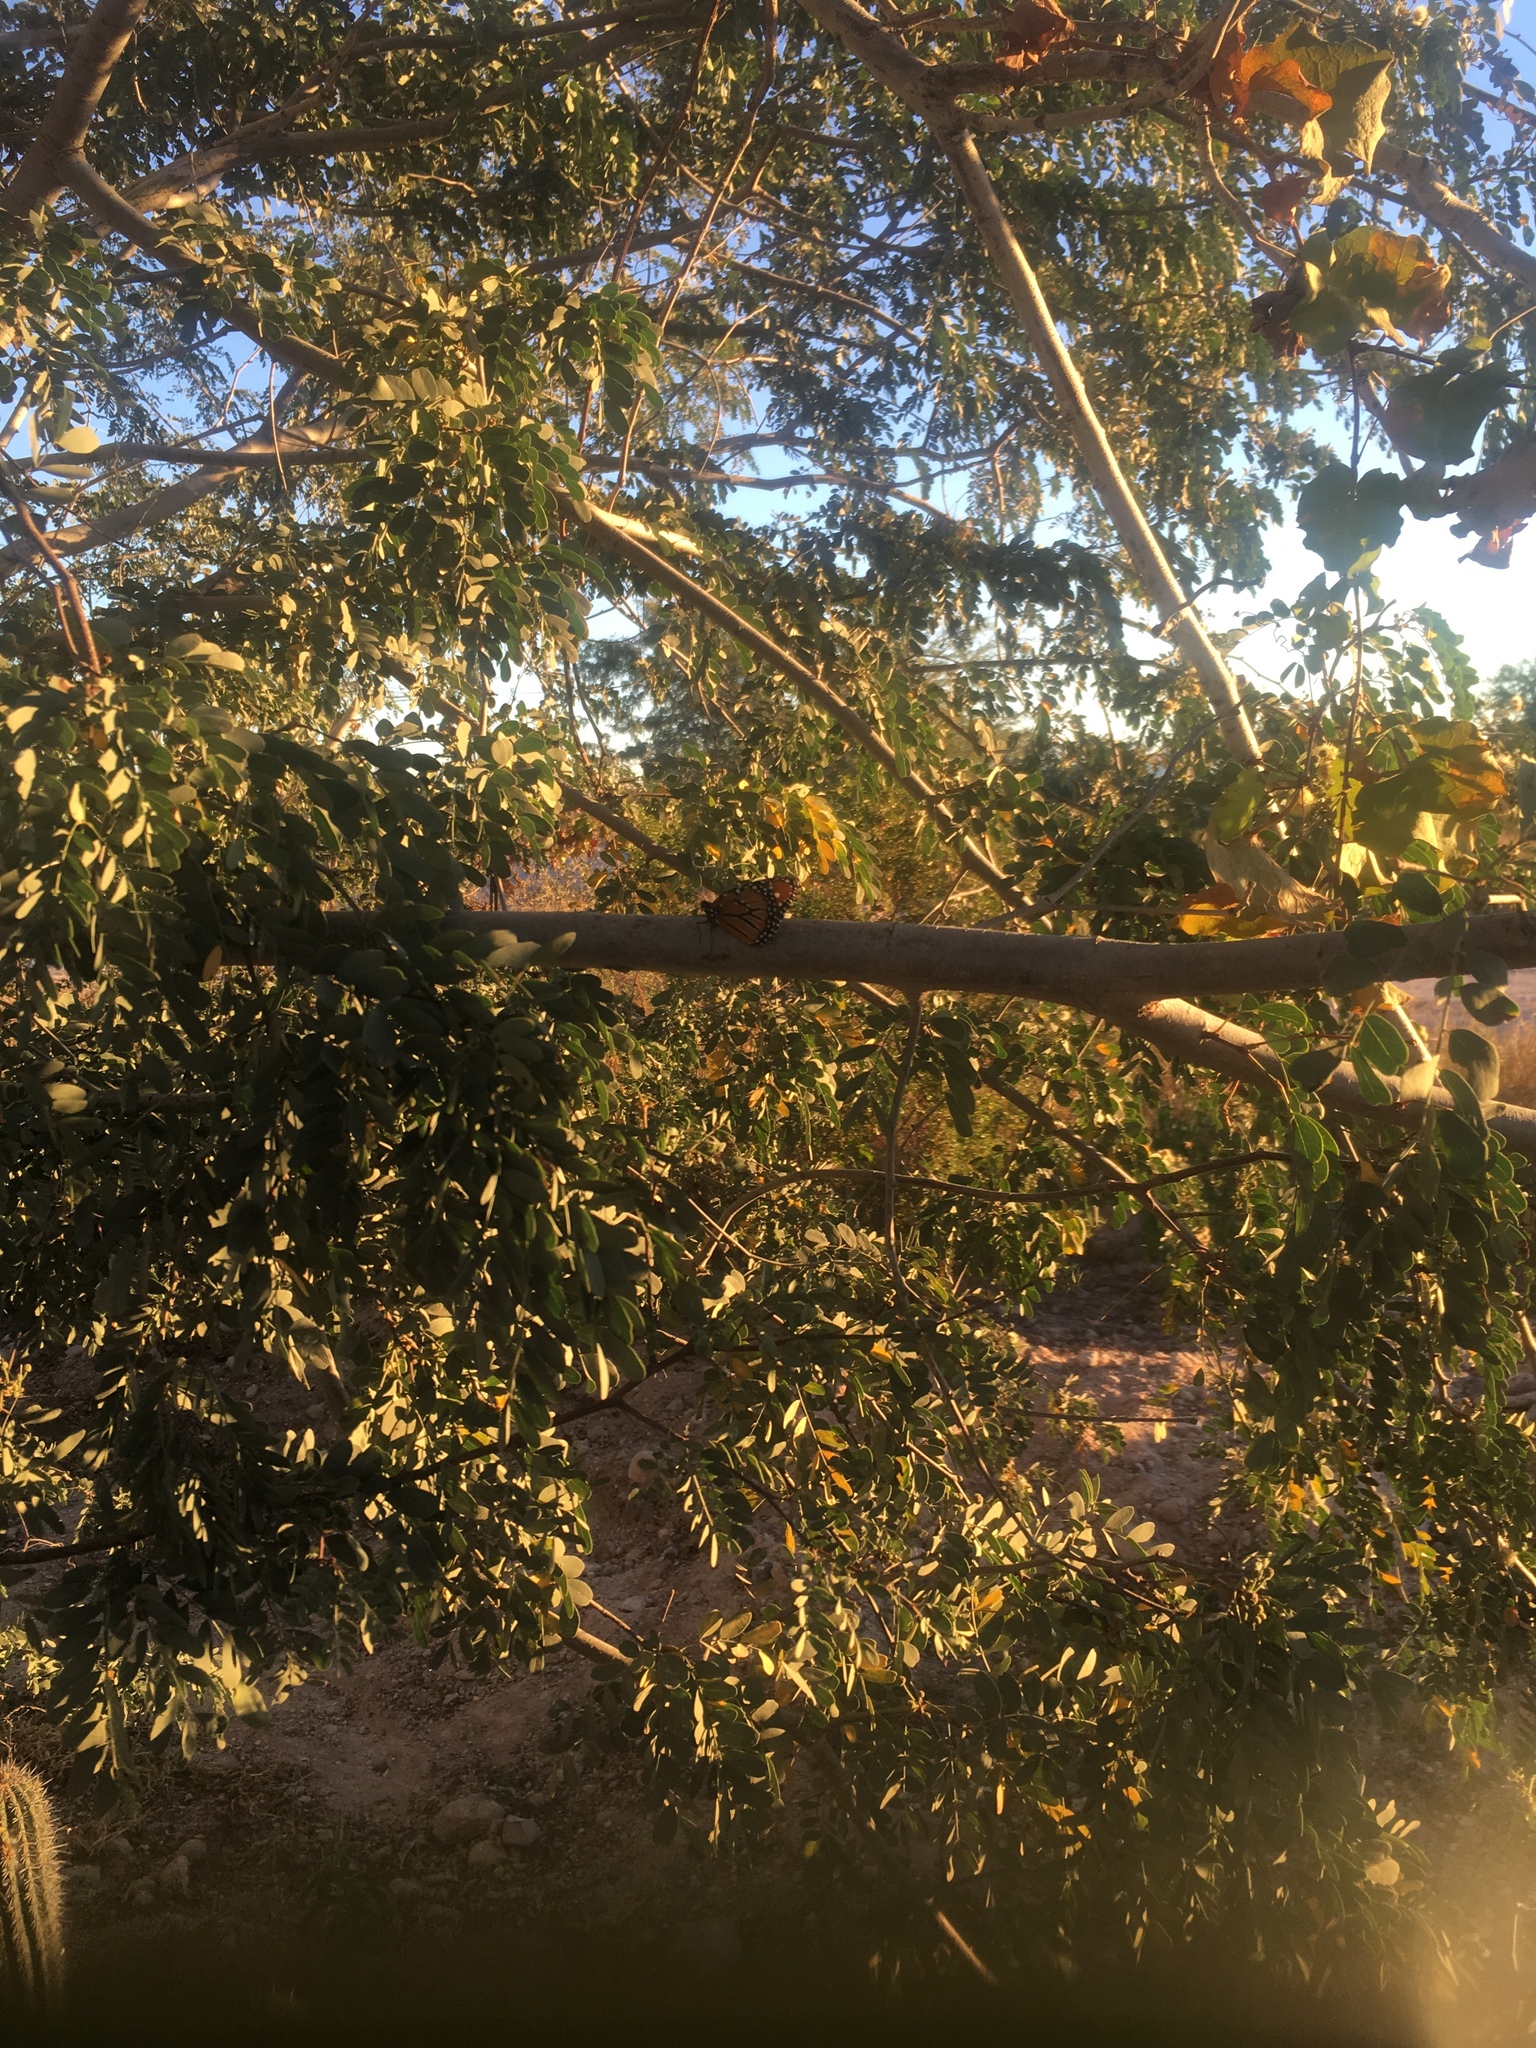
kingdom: Animalia
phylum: Arthropoda
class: Insecta
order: Lepidoptera
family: Nymphalidae
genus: Danaus
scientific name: Danaus gilippus
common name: Queen
